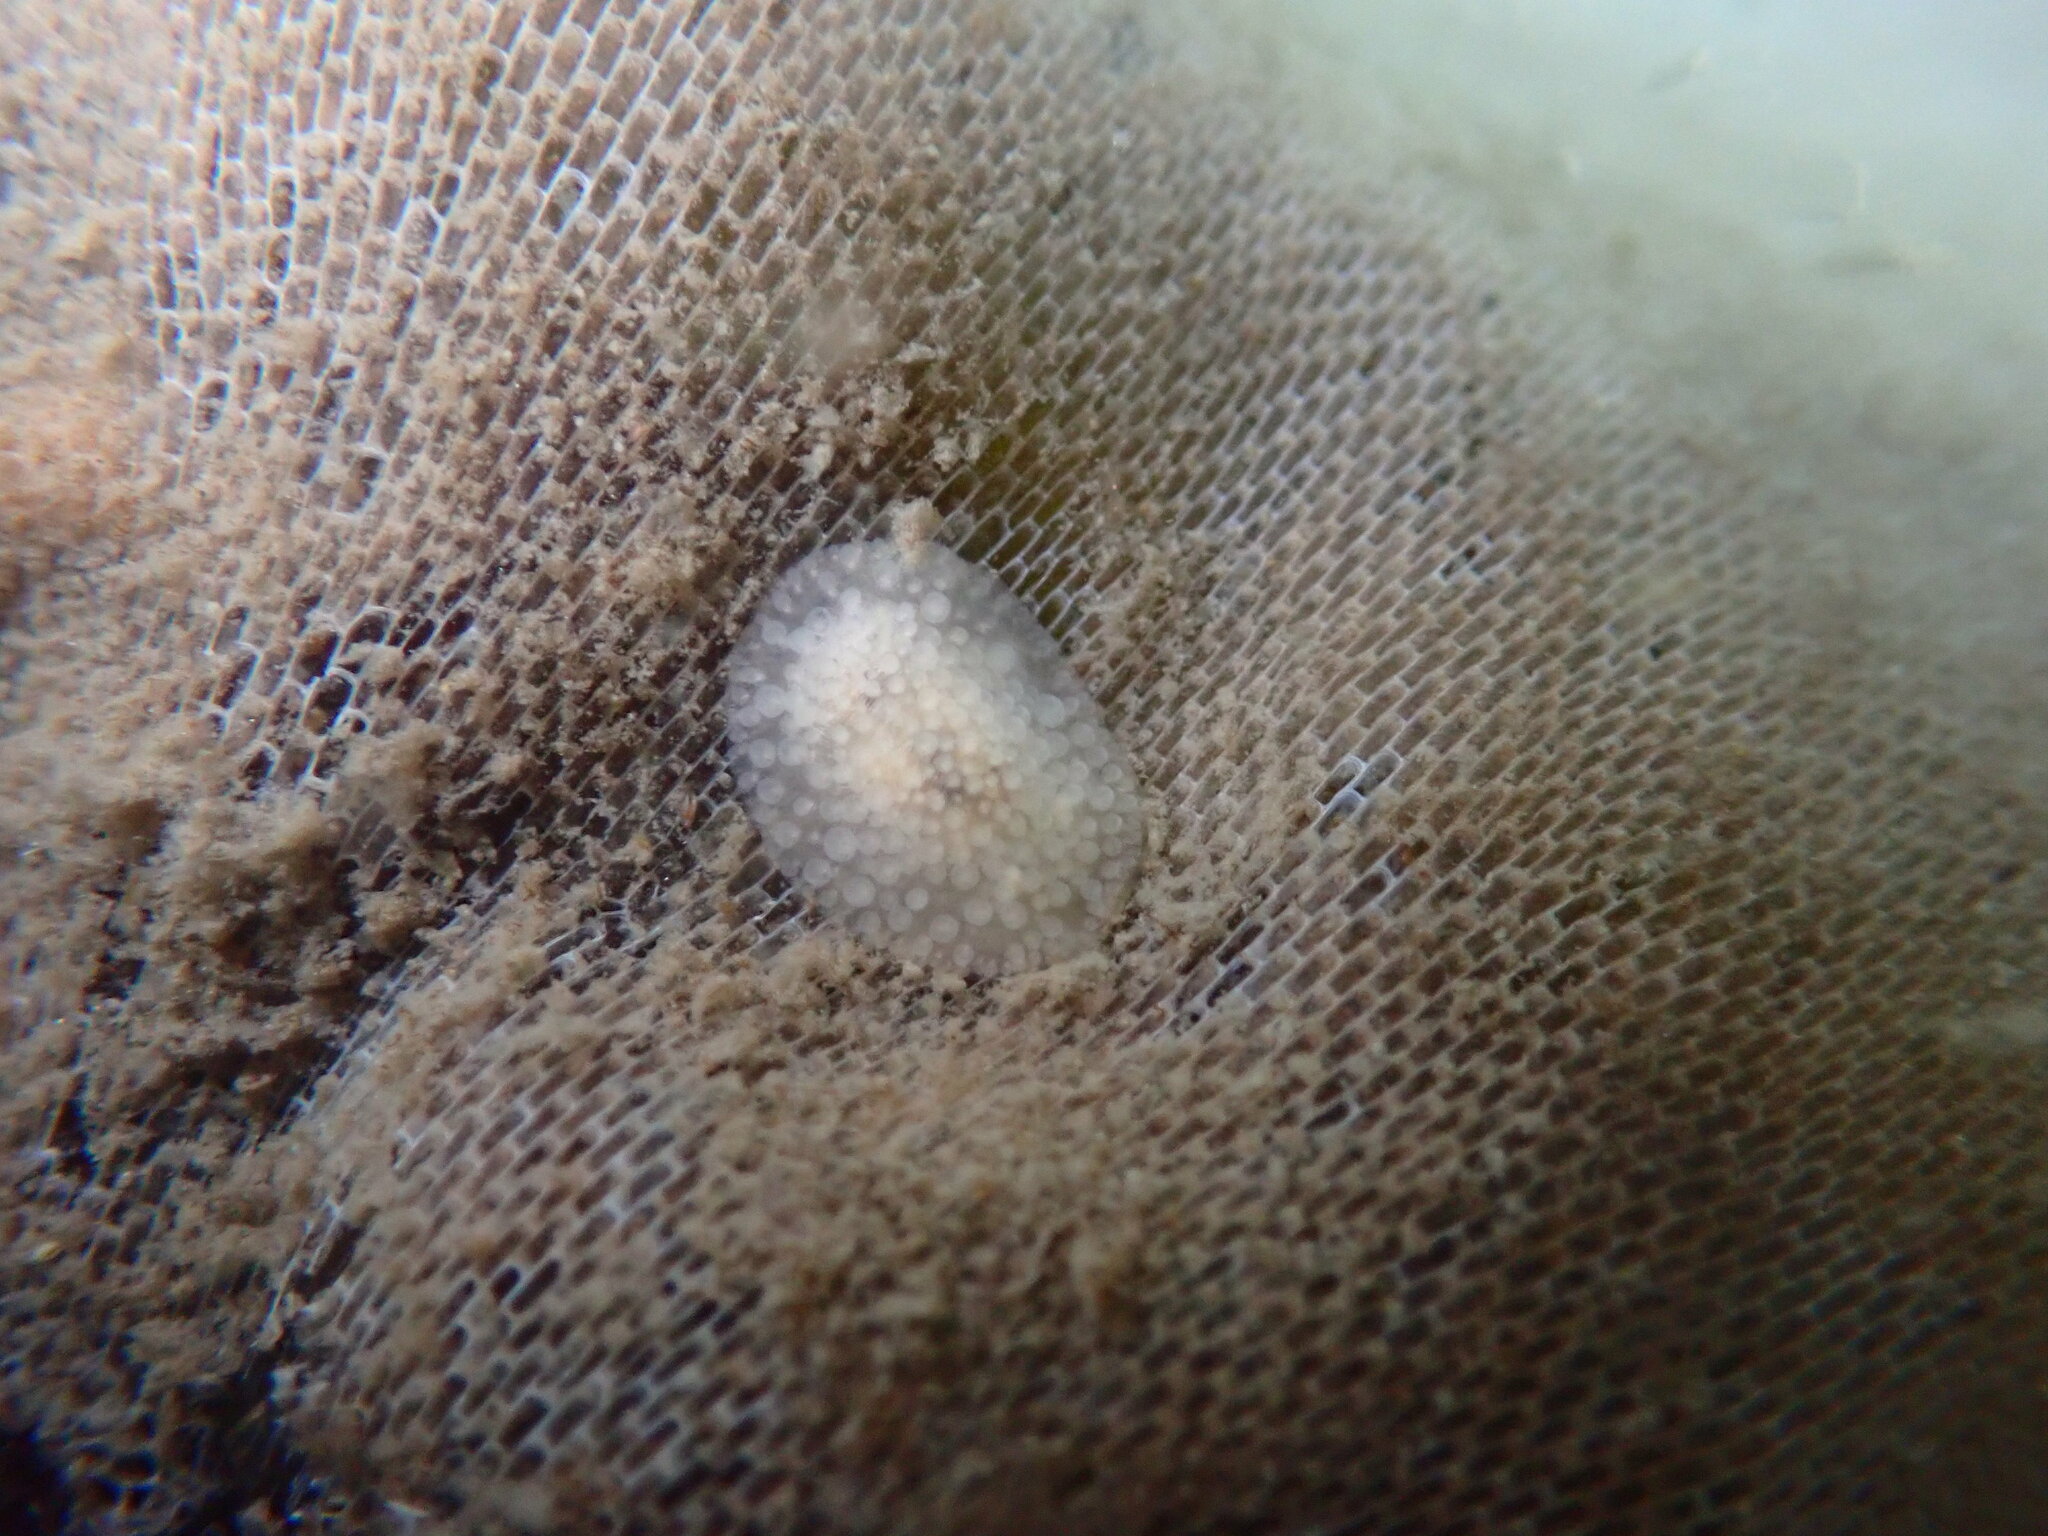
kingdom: Animalia
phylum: Mollusca
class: Gastropoda
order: Nudibranchia
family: Onchidorididae
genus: Onchidoris
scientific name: Onchidoris muricata
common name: Rough doris
